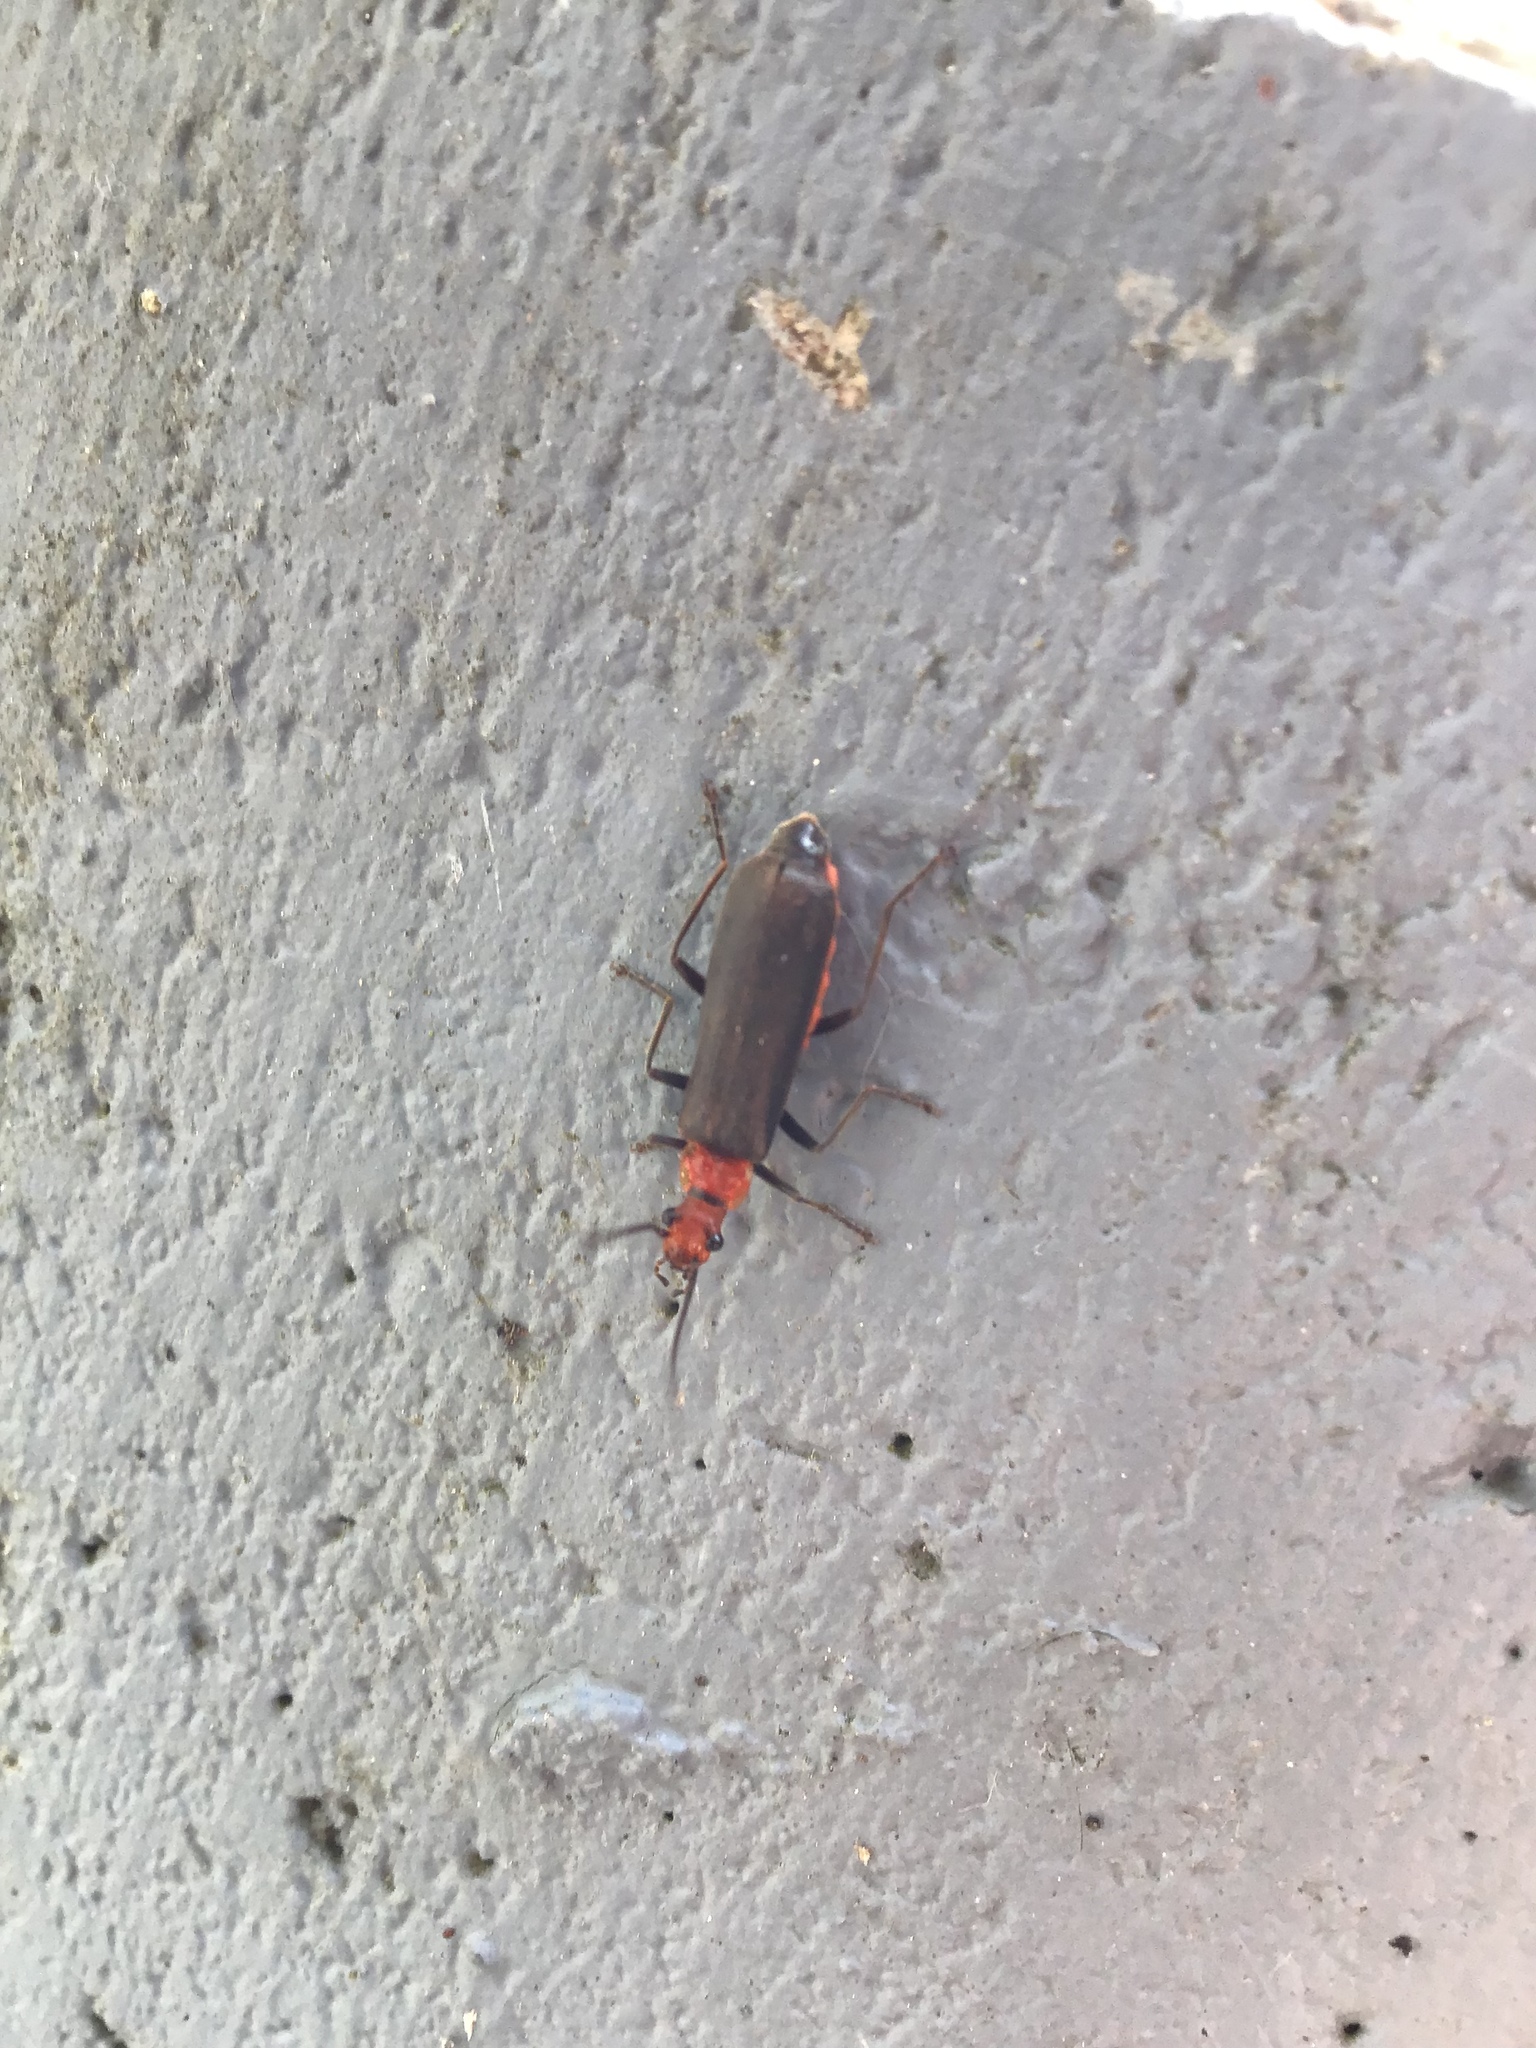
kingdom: Animalia
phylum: Arthropoda
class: Insecta
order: Coleoptera
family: Cantharidae
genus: Podabrus
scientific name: Podabrus conspiratus
